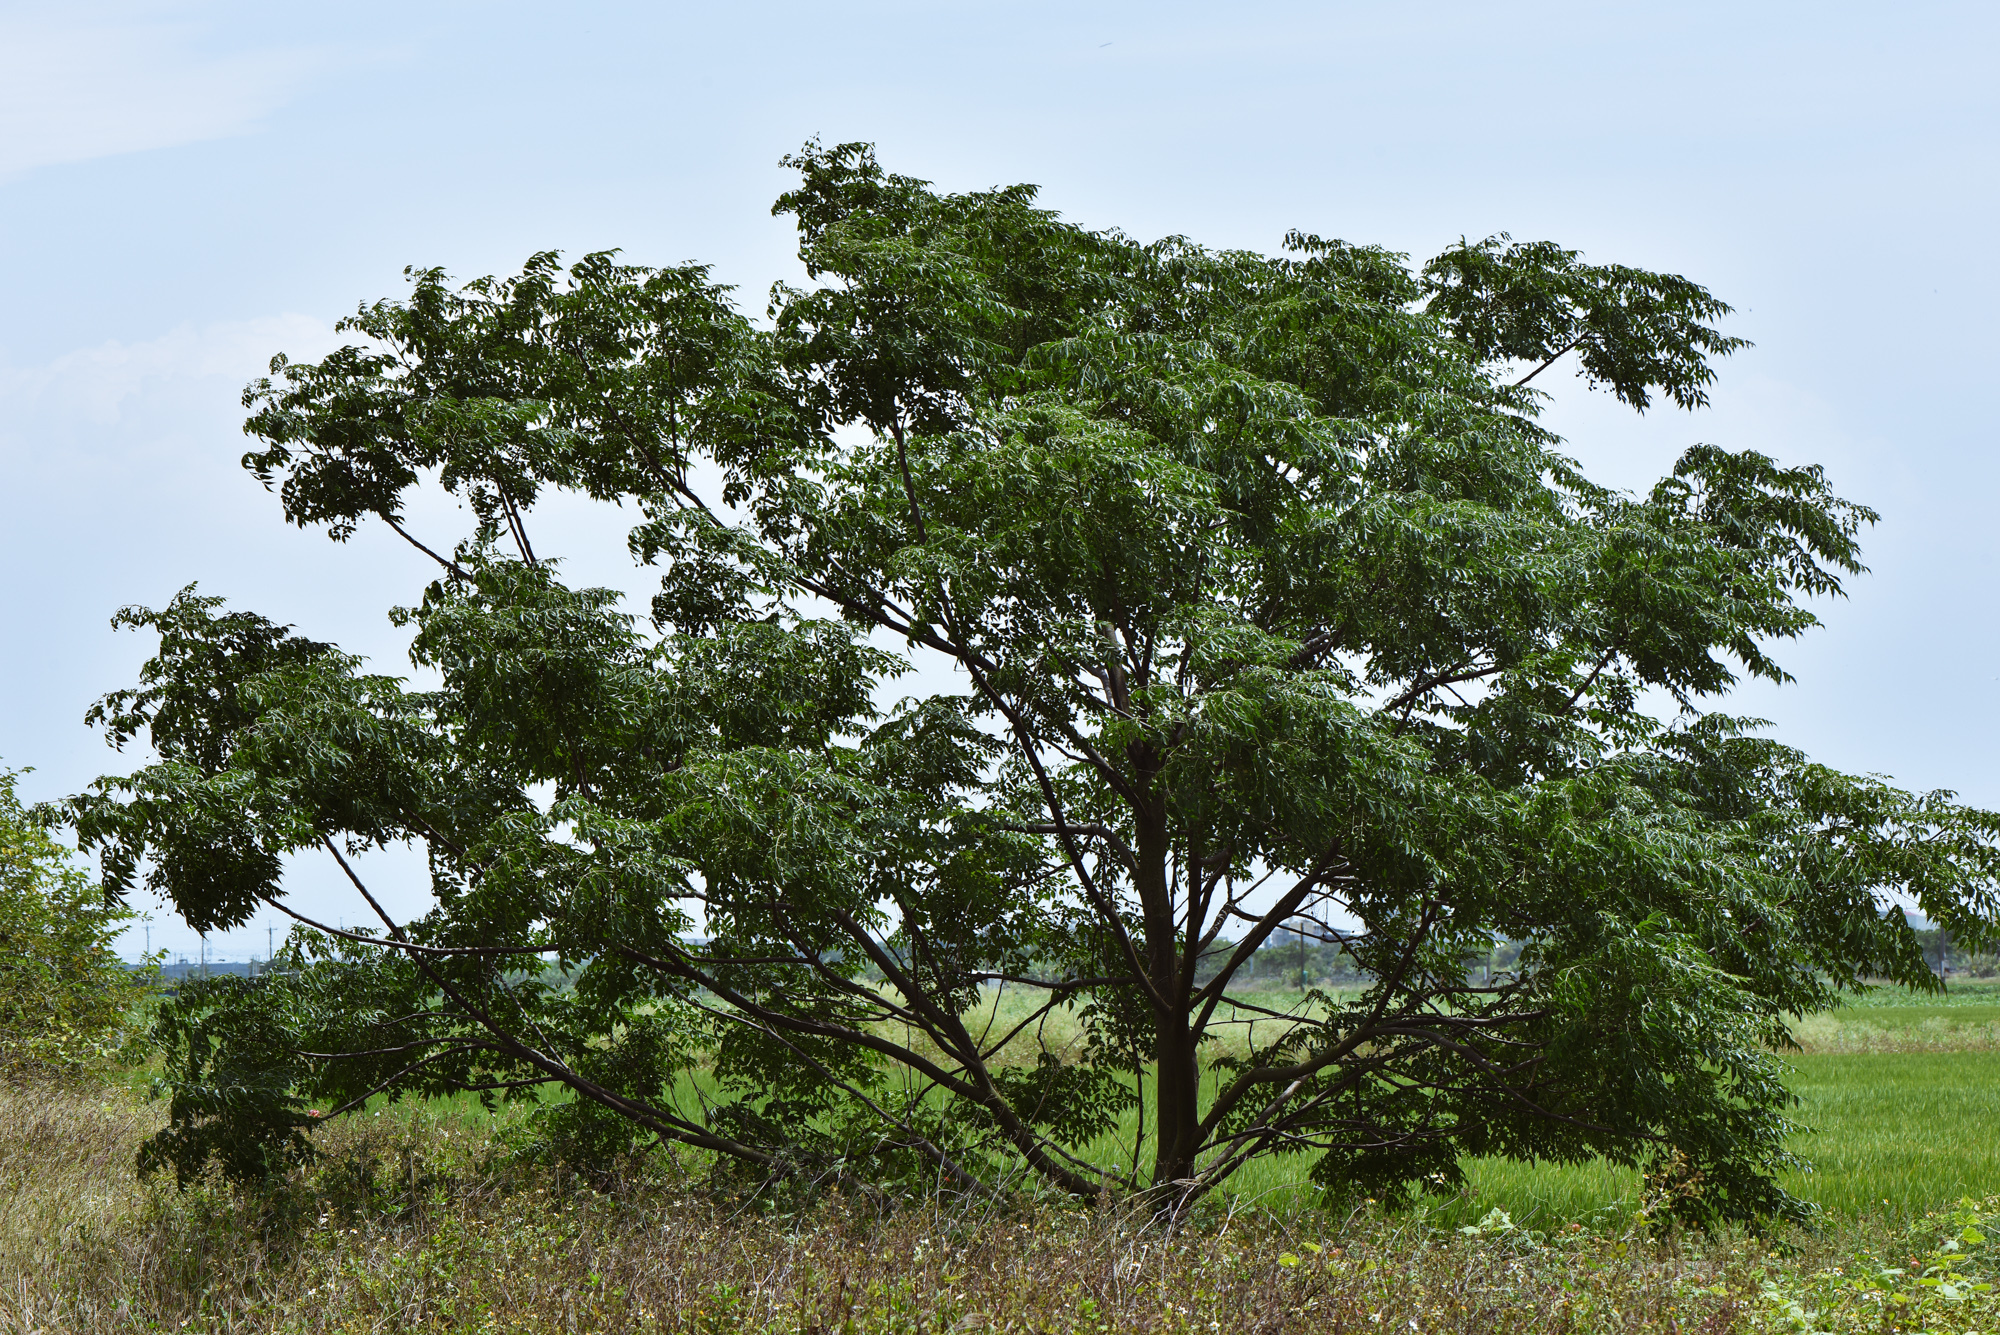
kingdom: Plantae
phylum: Tracheophyta
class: Magnoliopsida
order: Sapindales
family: Meliaceae
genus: Melia
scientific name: Melia azedarach
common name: Chinaberrytree
